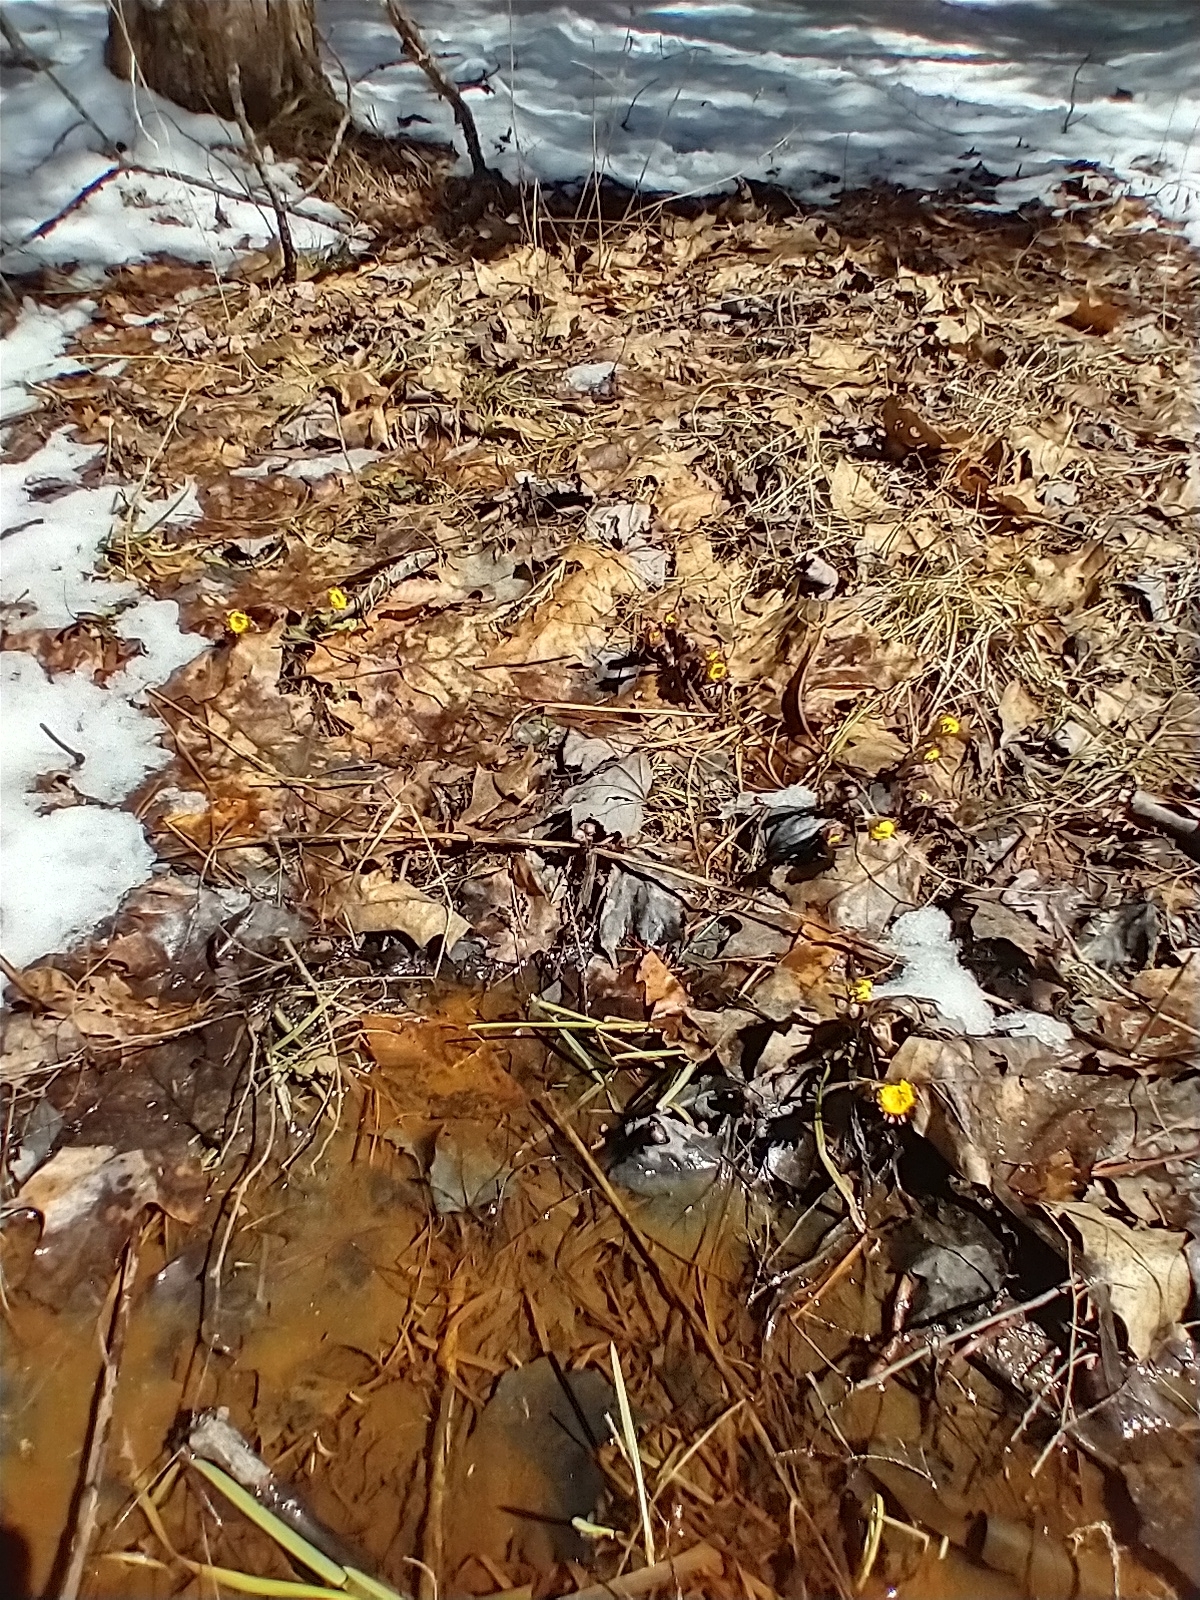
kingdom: Plantae
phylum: Tracheophyta
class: Magnoliopsida
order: Asterales
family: Asteraceae
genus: Tussilago
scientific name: Tussilago farfara
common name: Coltsfoot
